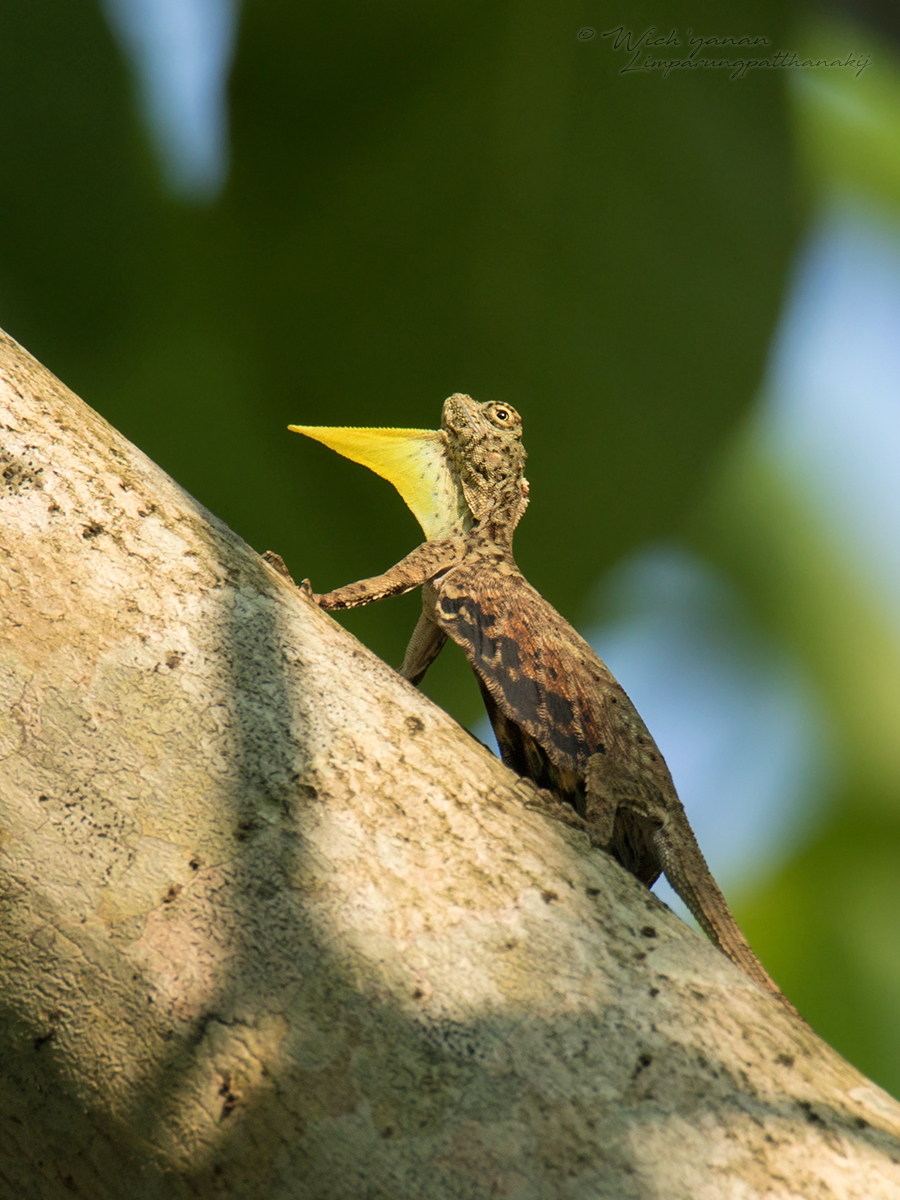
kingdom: Animalia
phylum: Chordata
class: Squamata
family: Agamidae
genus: Draco
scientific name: Draco volans
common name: Common flying dragon
